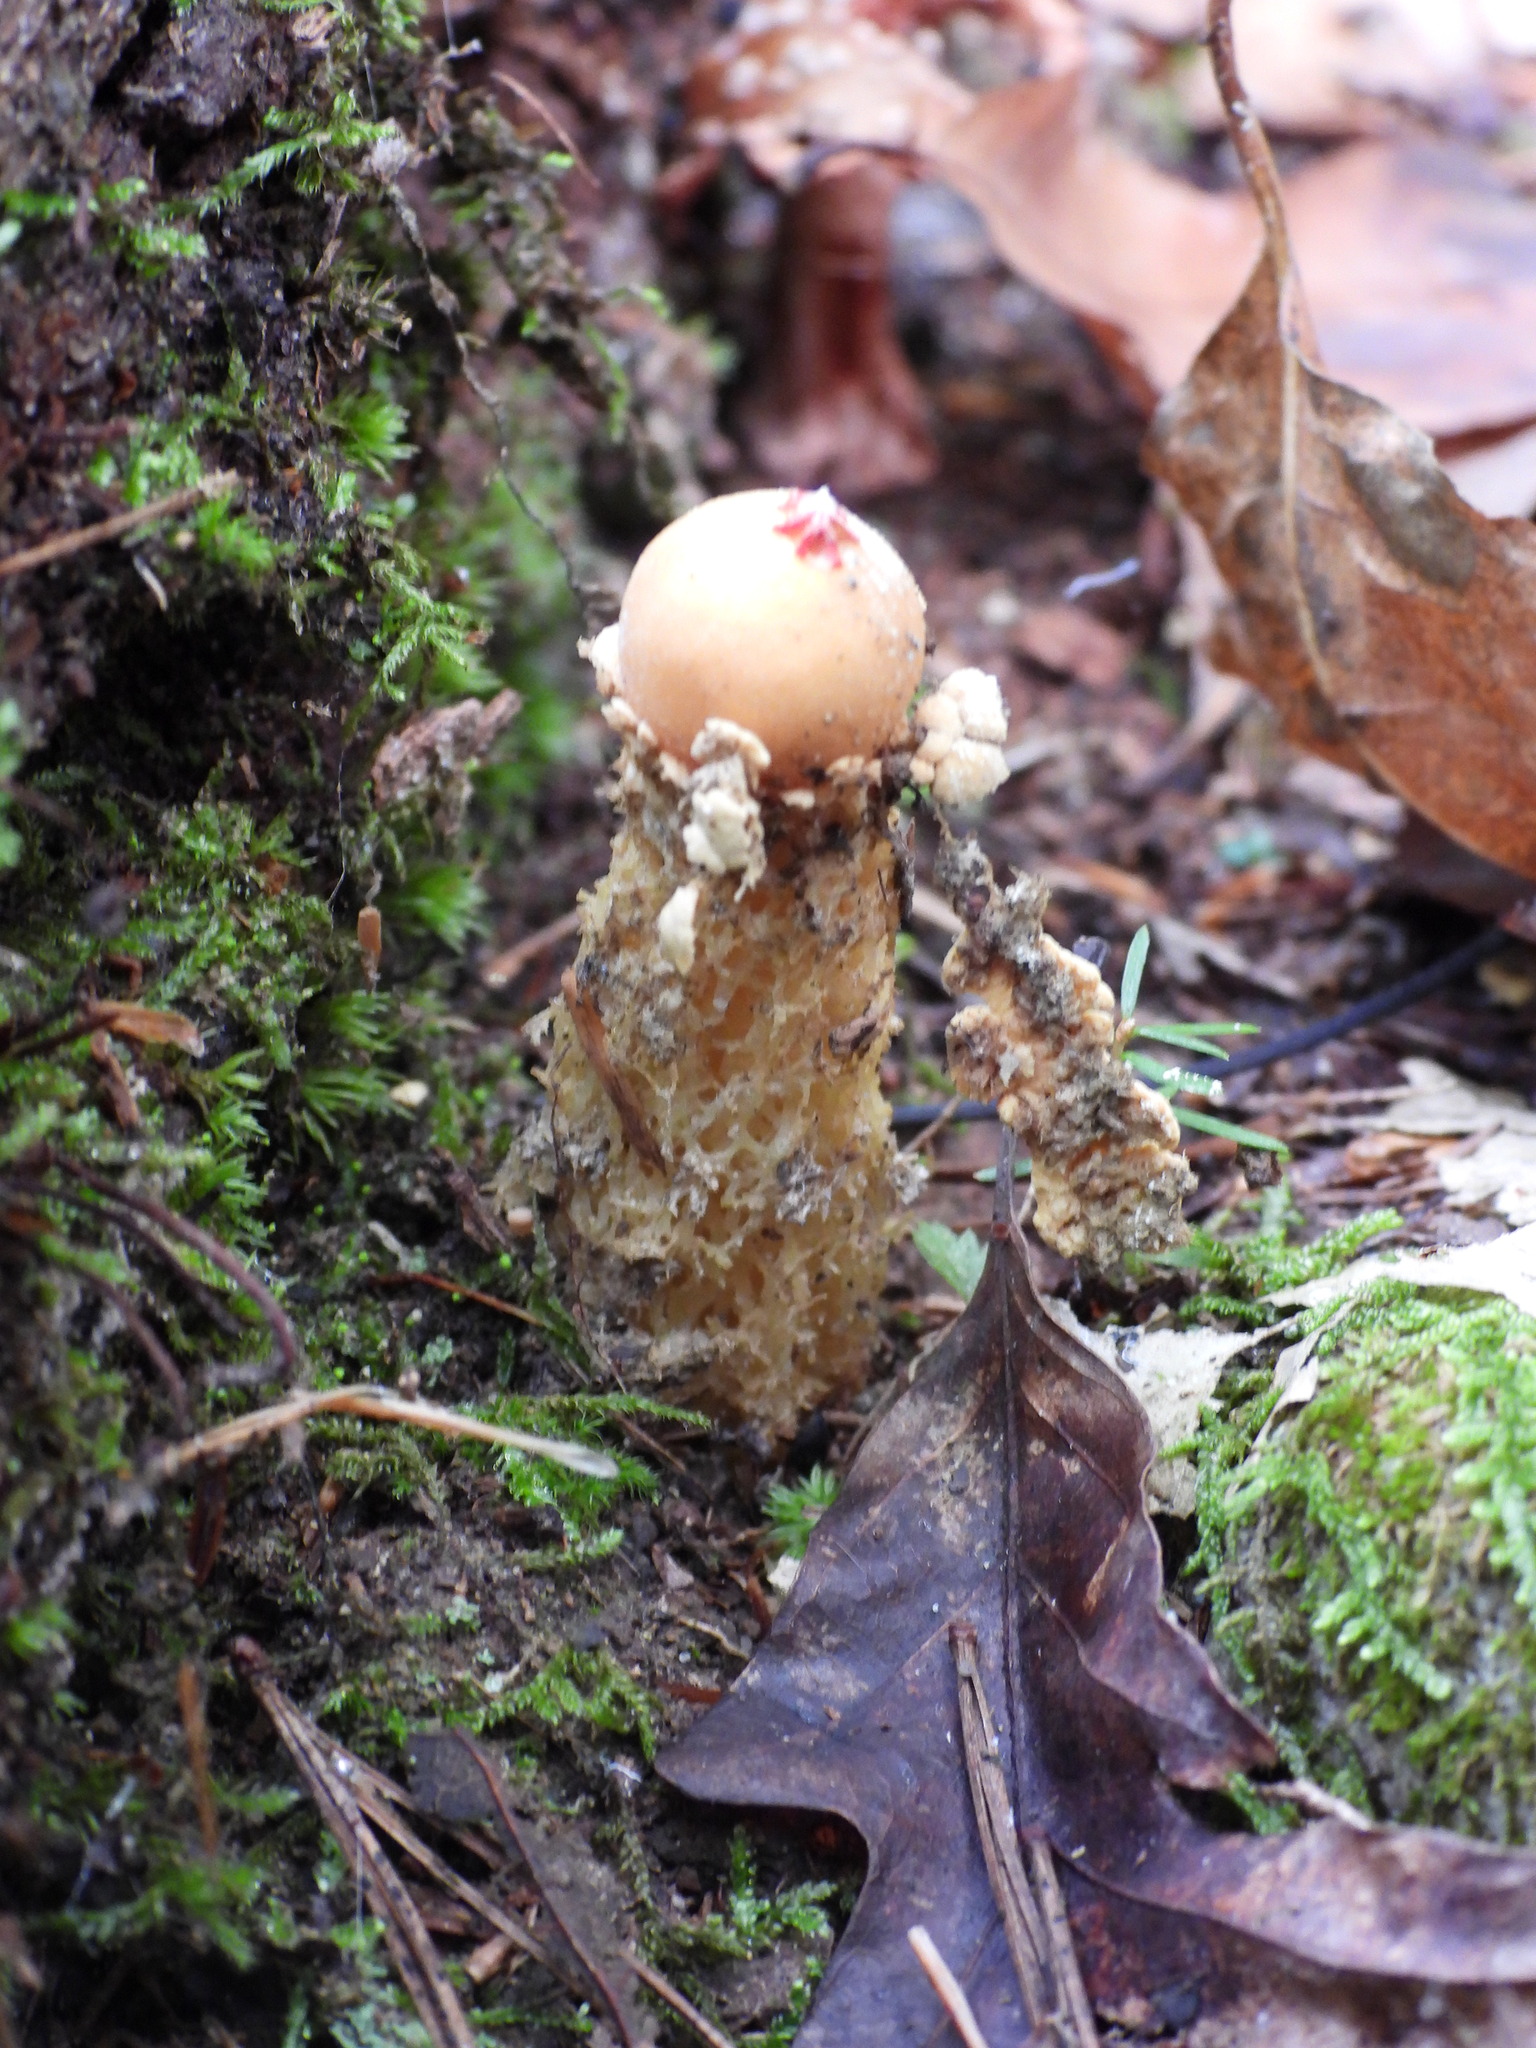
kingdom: Fungi
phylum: Basidiomycota
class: Agaricomycetes
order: Boletales
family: Calostomataceae
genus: Calostoma
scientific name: Calostoma lutescens
